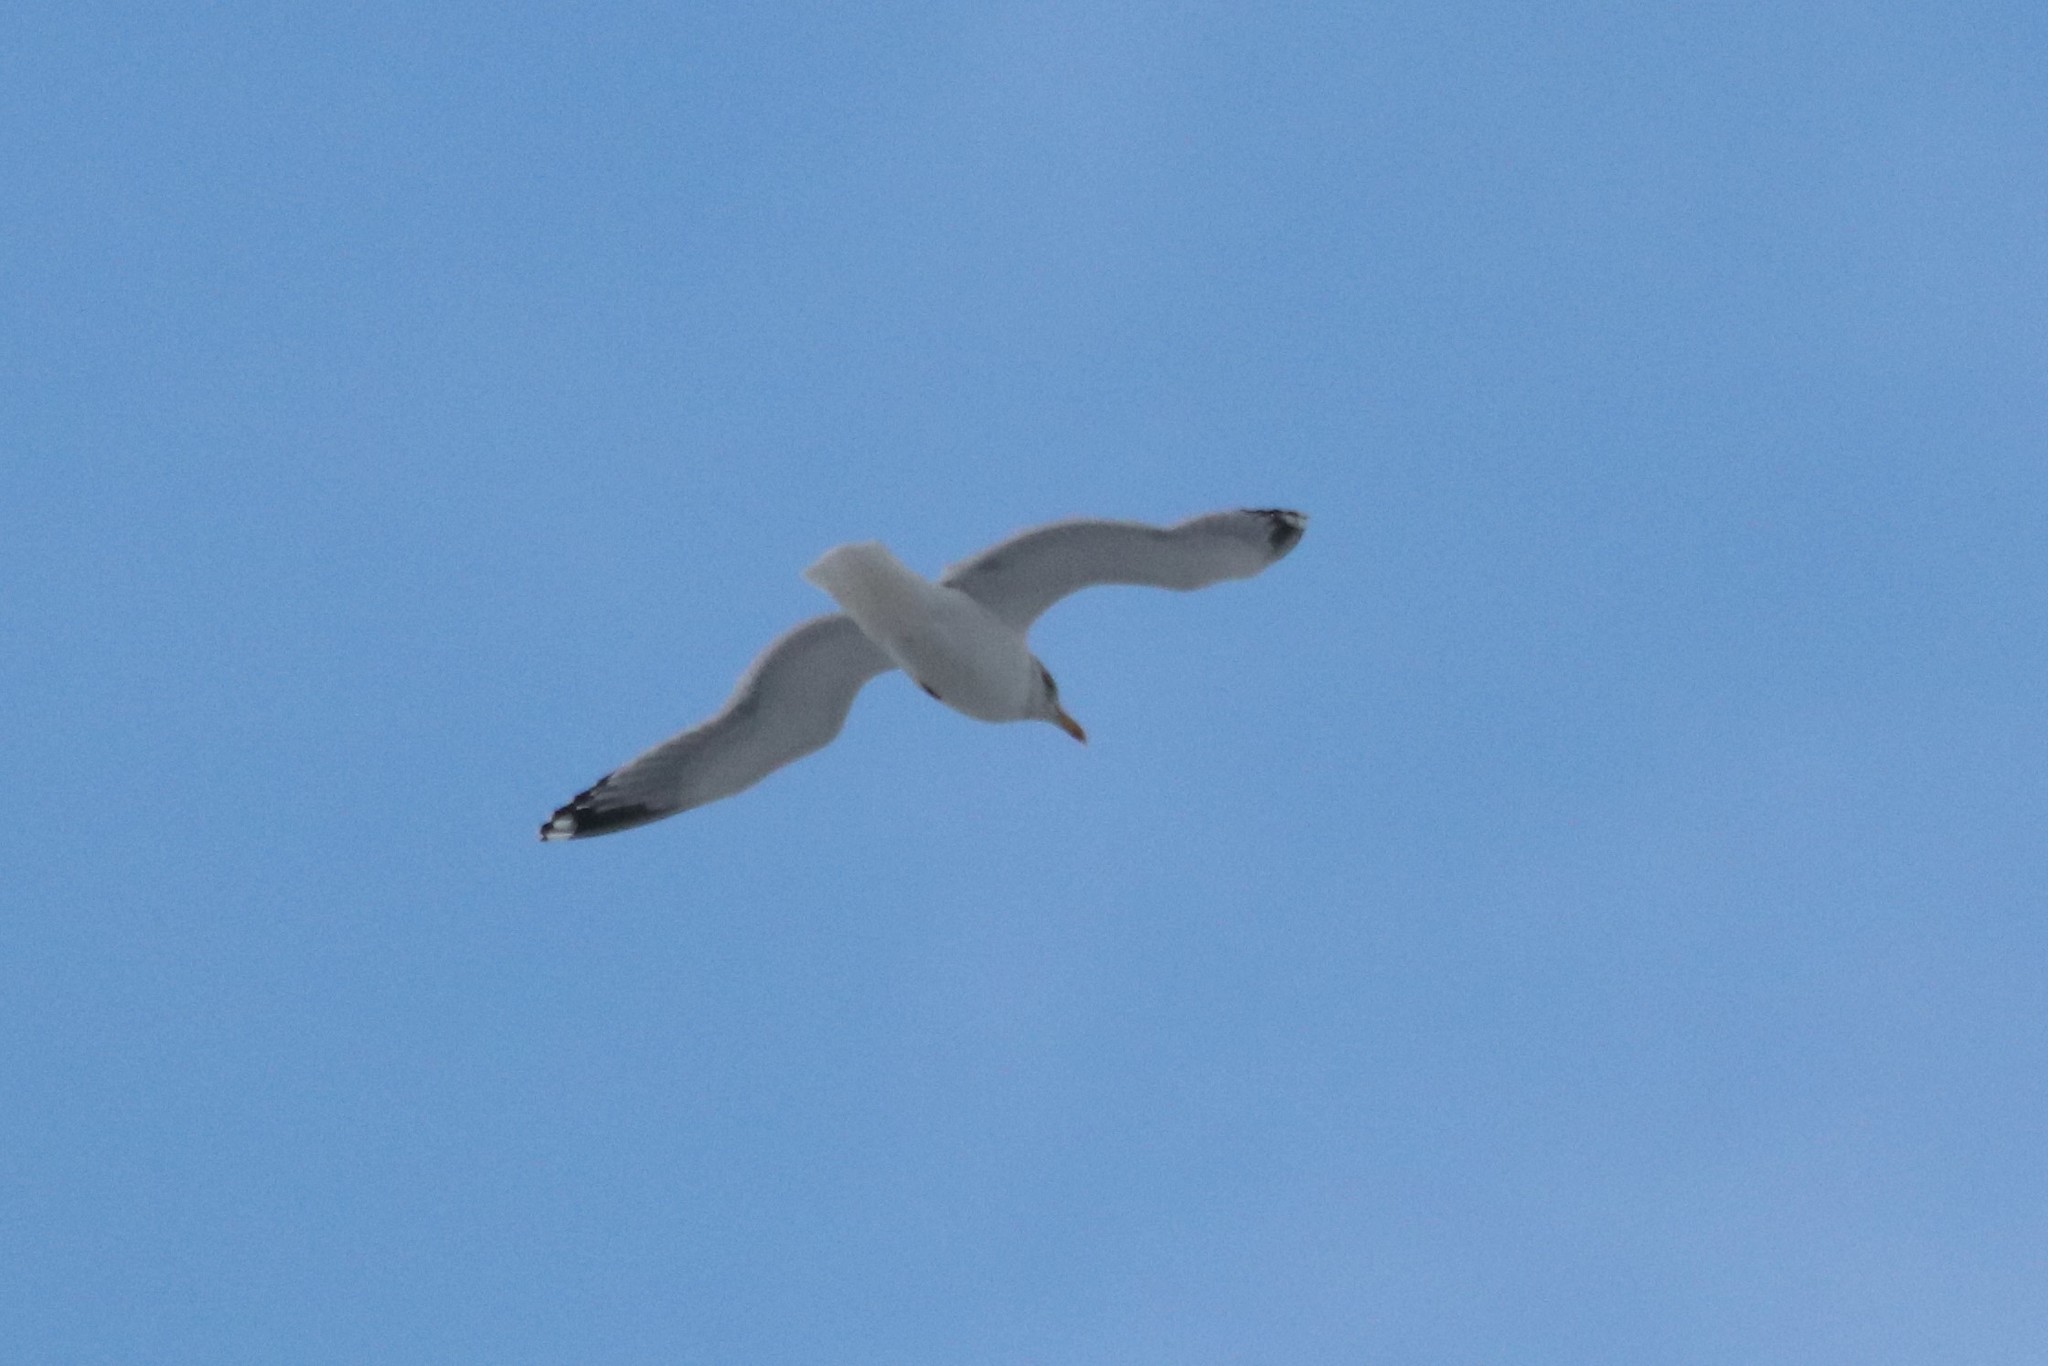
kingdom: Animalia
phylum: Chordata
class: Aves
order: Charadriiformes
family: Laridae
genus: Larus
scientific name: Larus argentatus
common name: Herring gull
